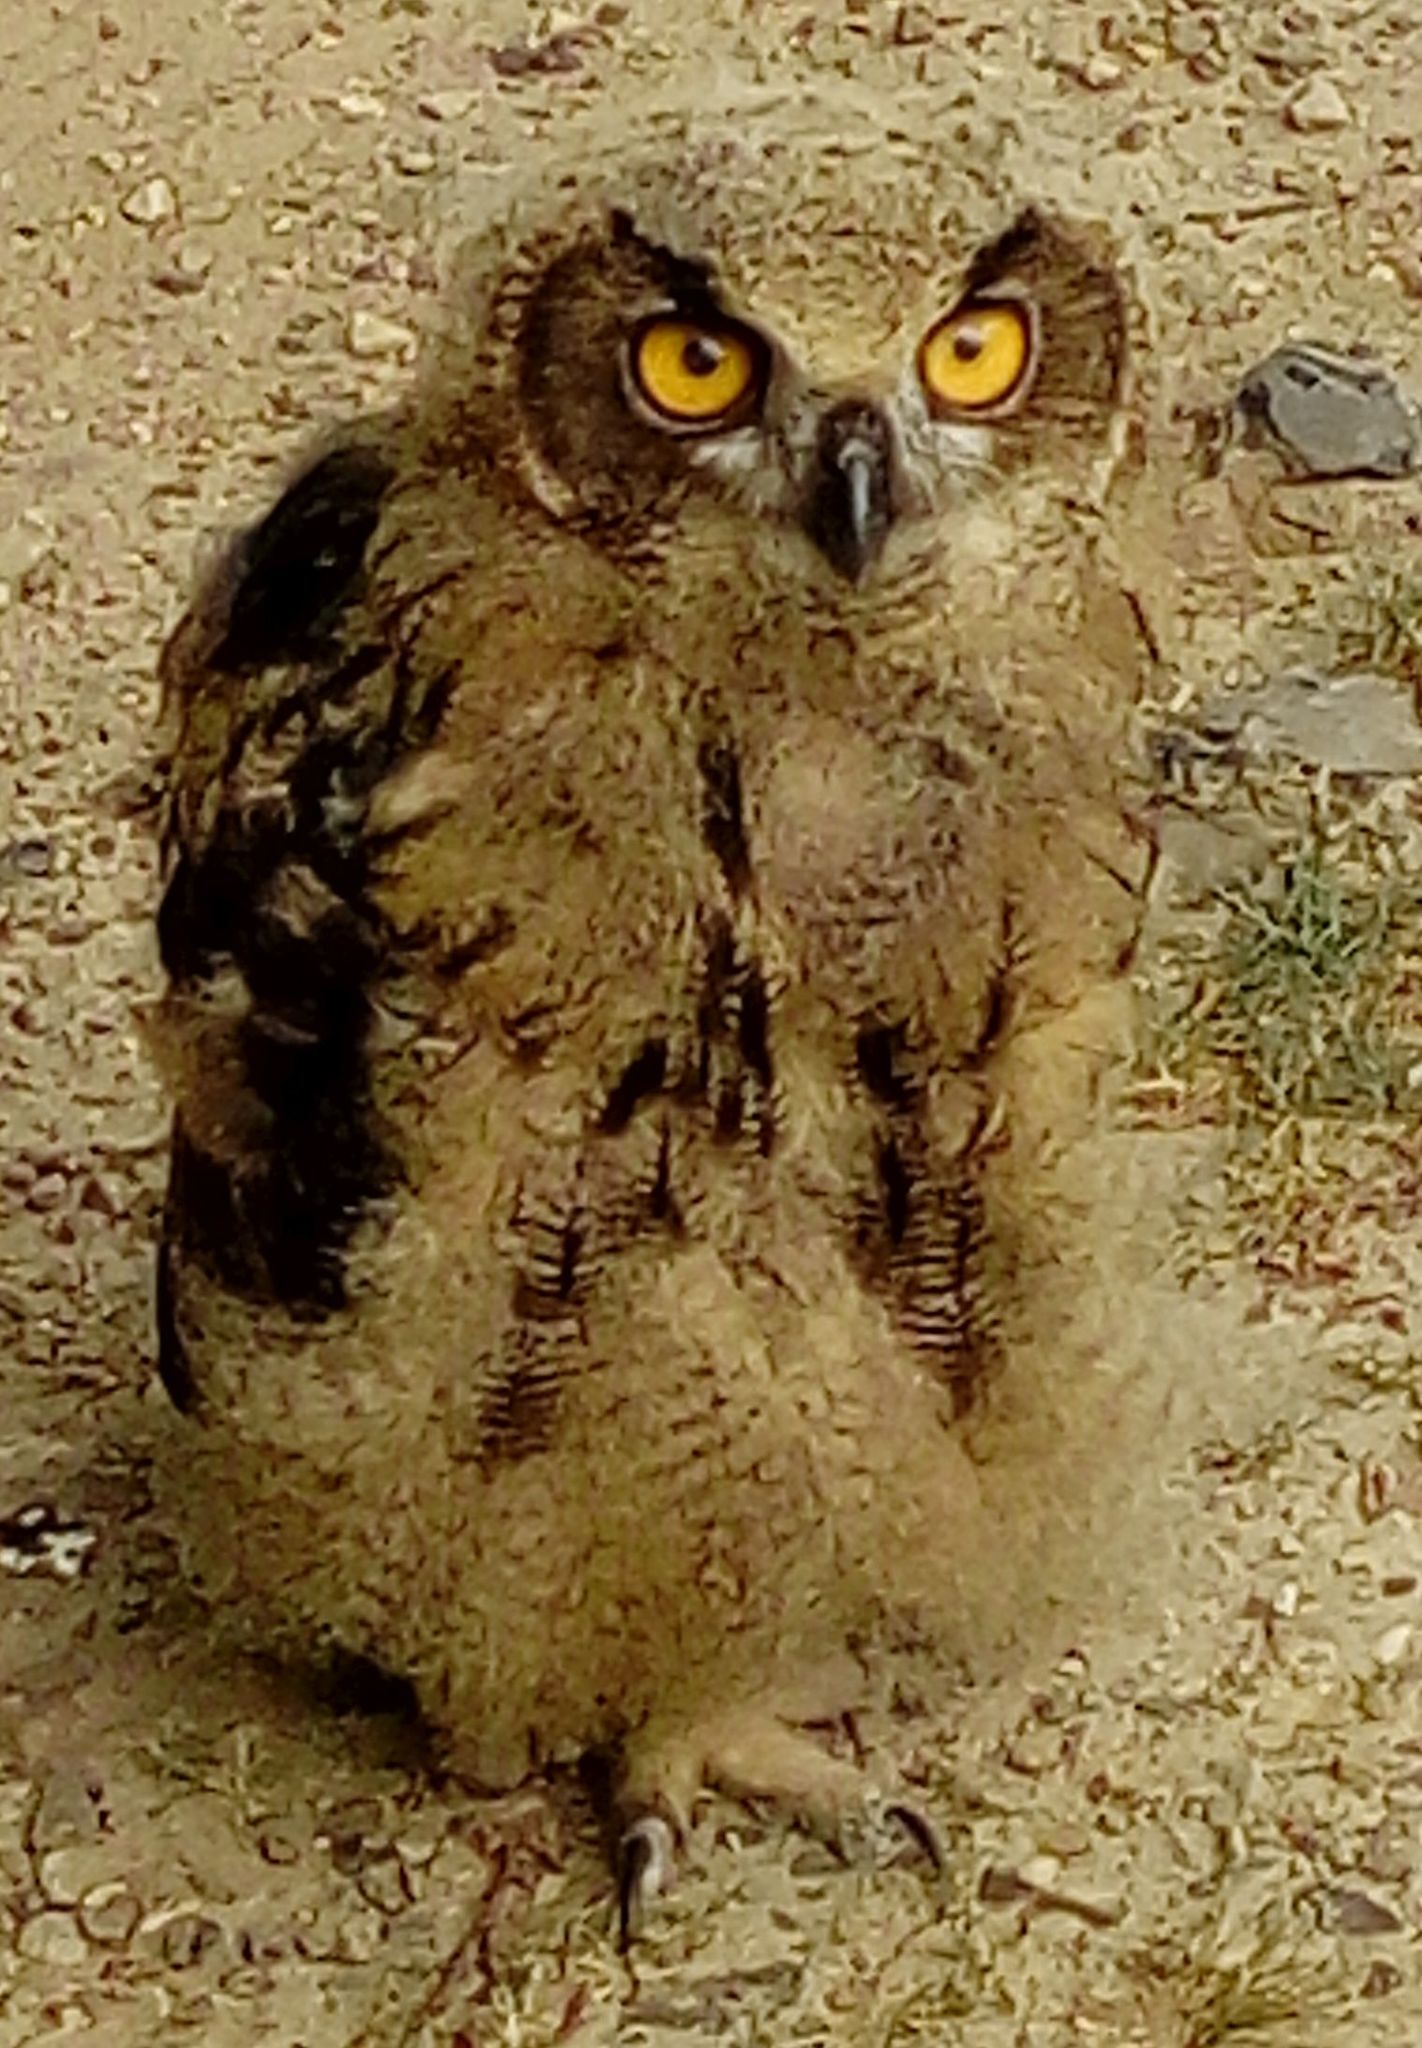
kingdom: Animalia
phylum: Chordata
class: Aves
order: Strigiformes
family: Strigidae
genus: Bubo
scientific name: Bubo bubo
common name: Eurasian eagle-owl
